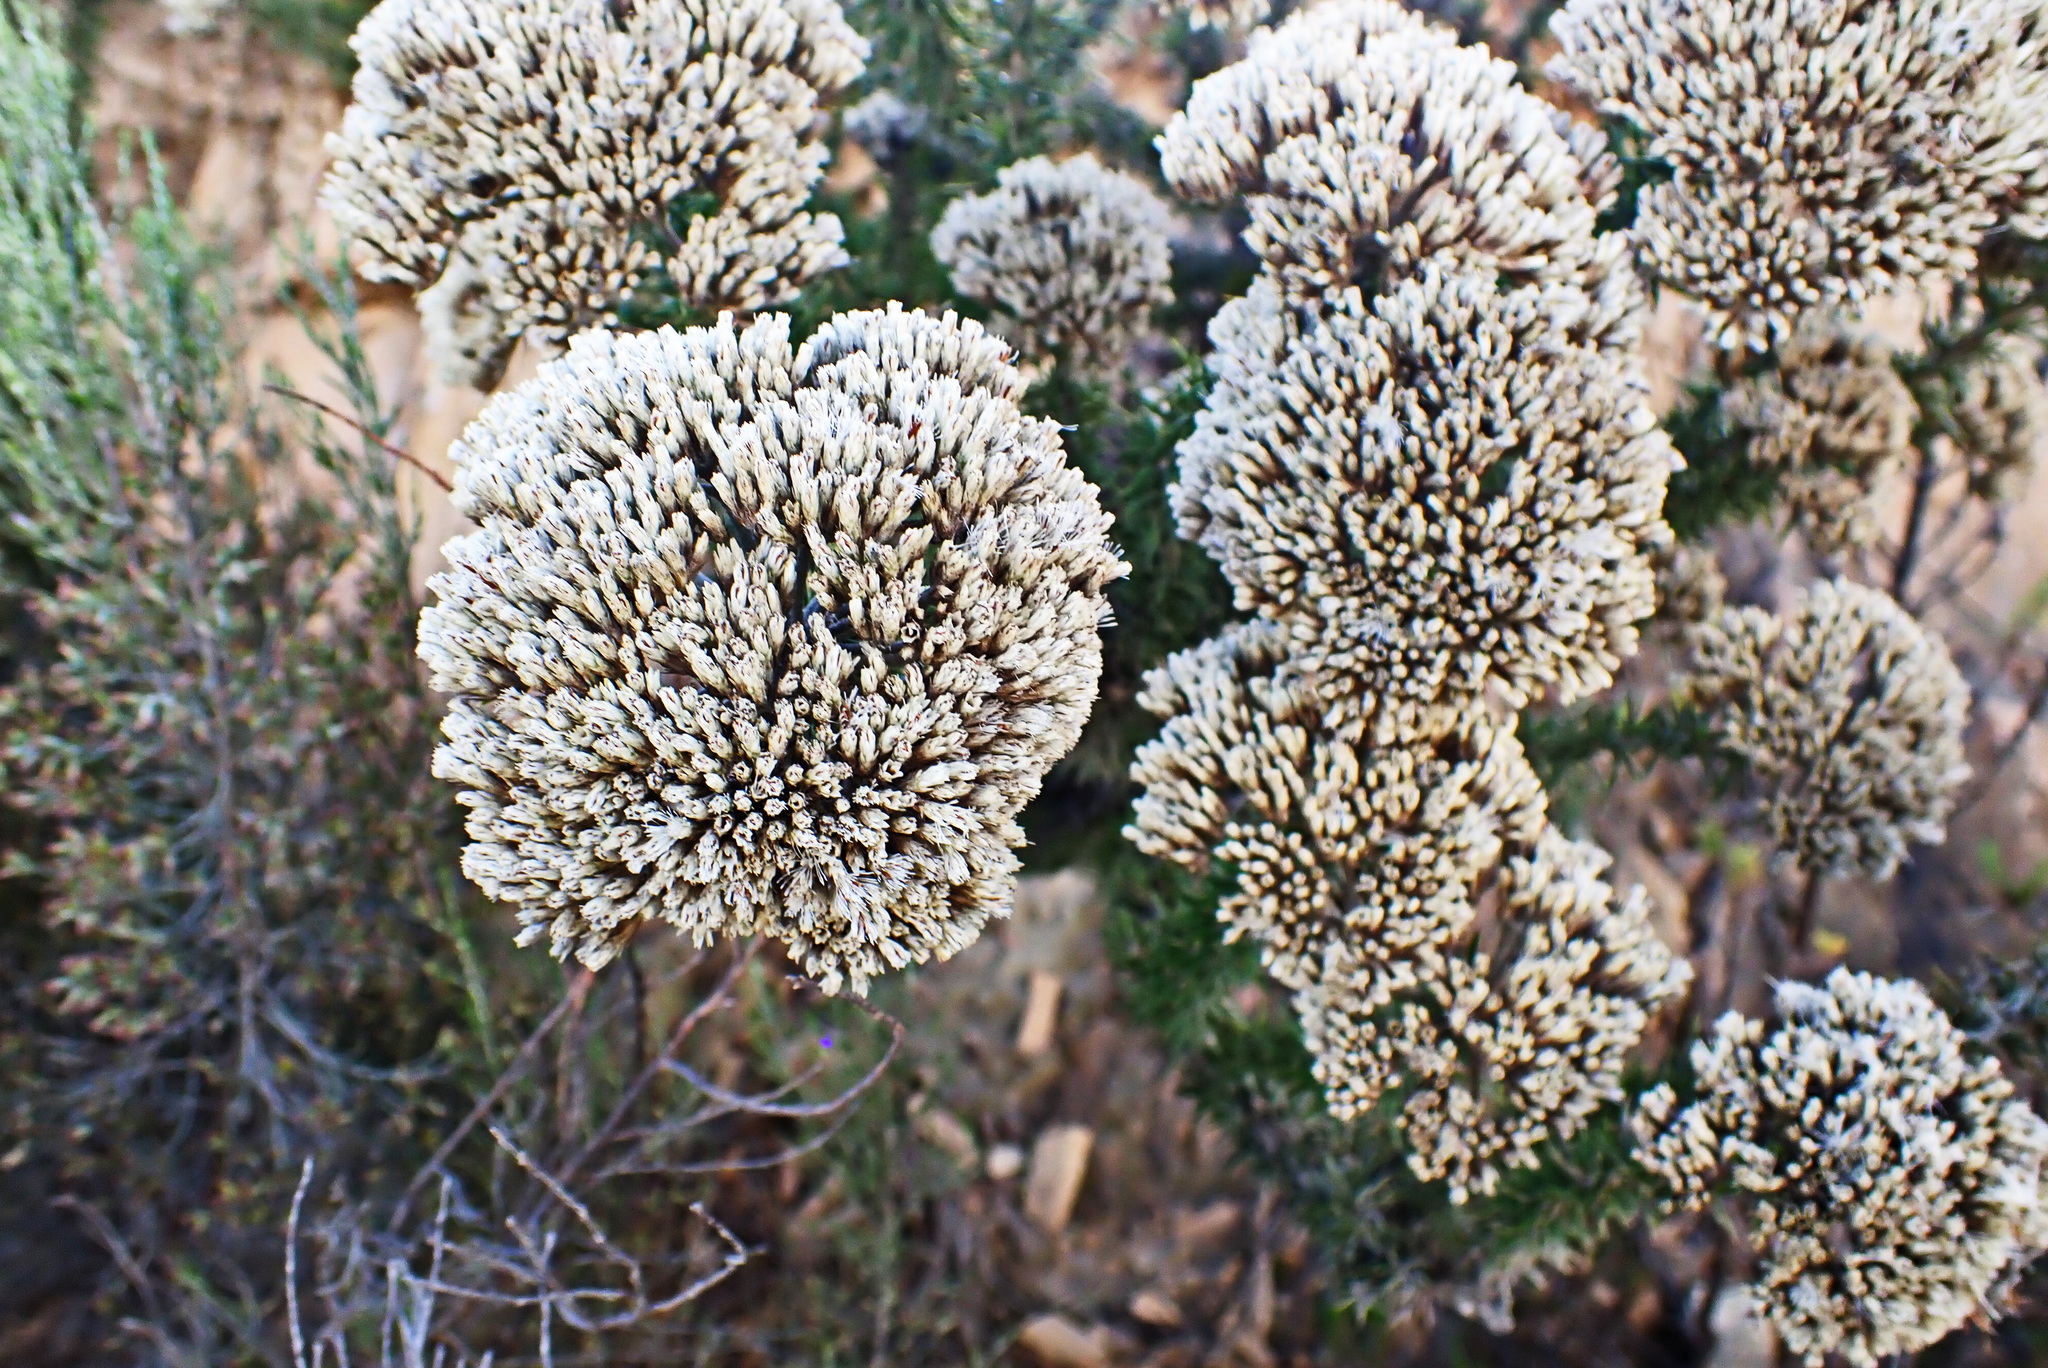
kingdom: Plantae
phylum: Tracheophyta
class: Magnoliopsida
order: Asterales
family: Asteraceae
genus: Metalasia
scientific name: Metalasia acuta
